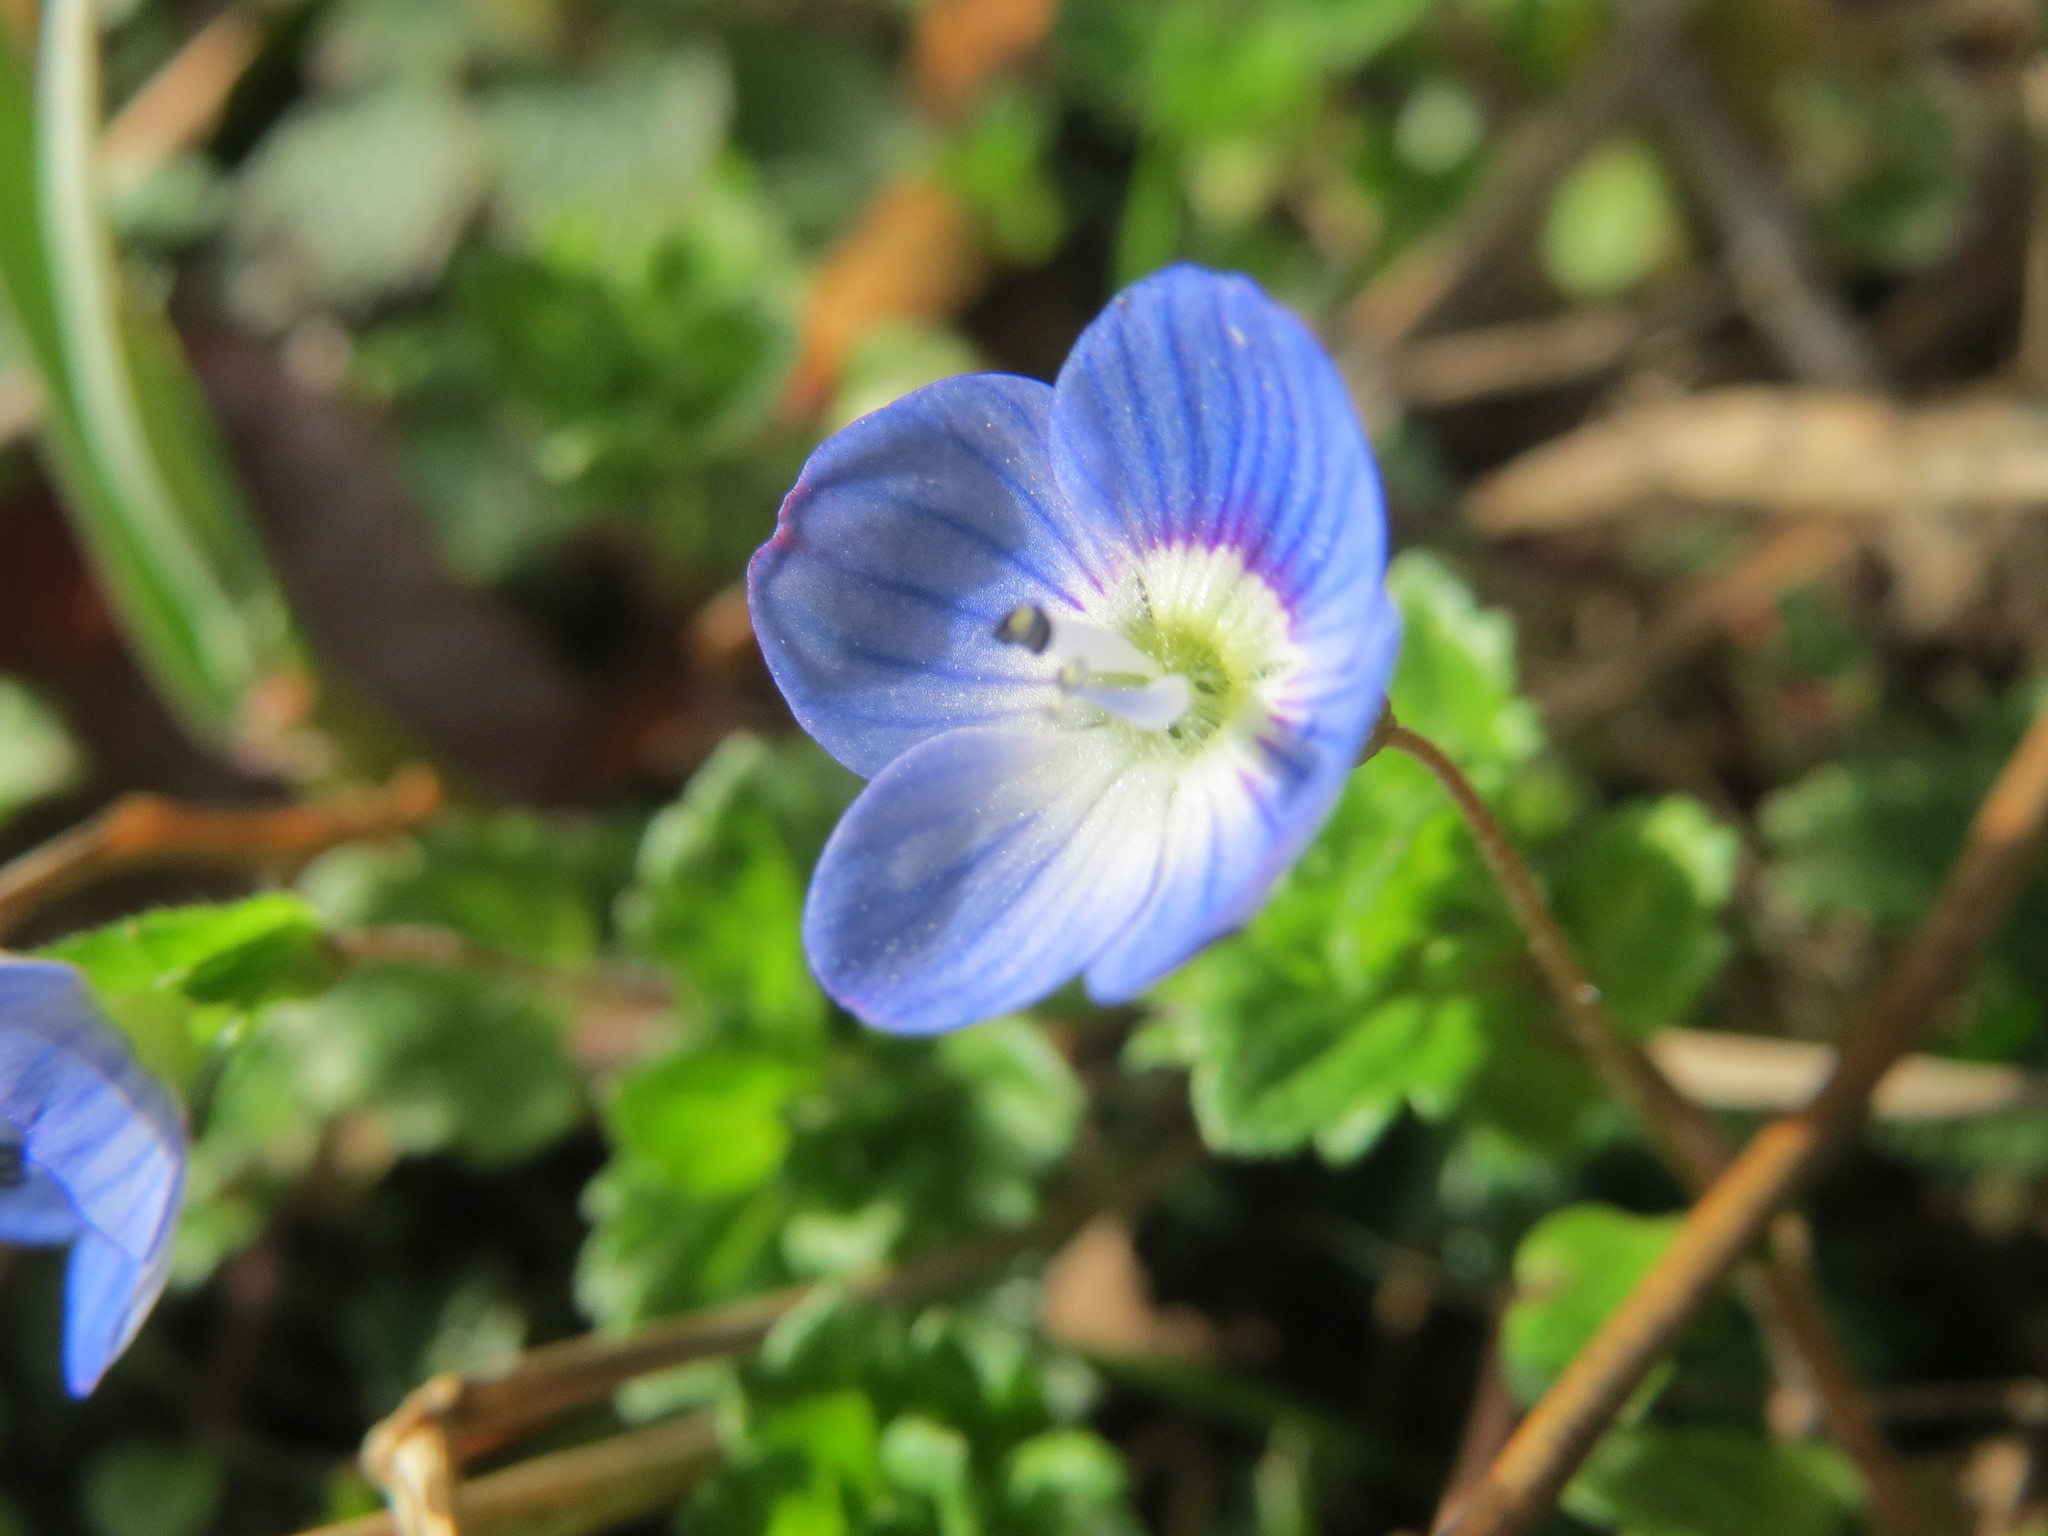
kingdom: Plantae
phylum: Tracheophyta
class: Magnoliopsida
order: Lamiales
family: Plantaginaceae
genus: Veronica
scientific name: Veronica persica
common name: Common field-speedwell
